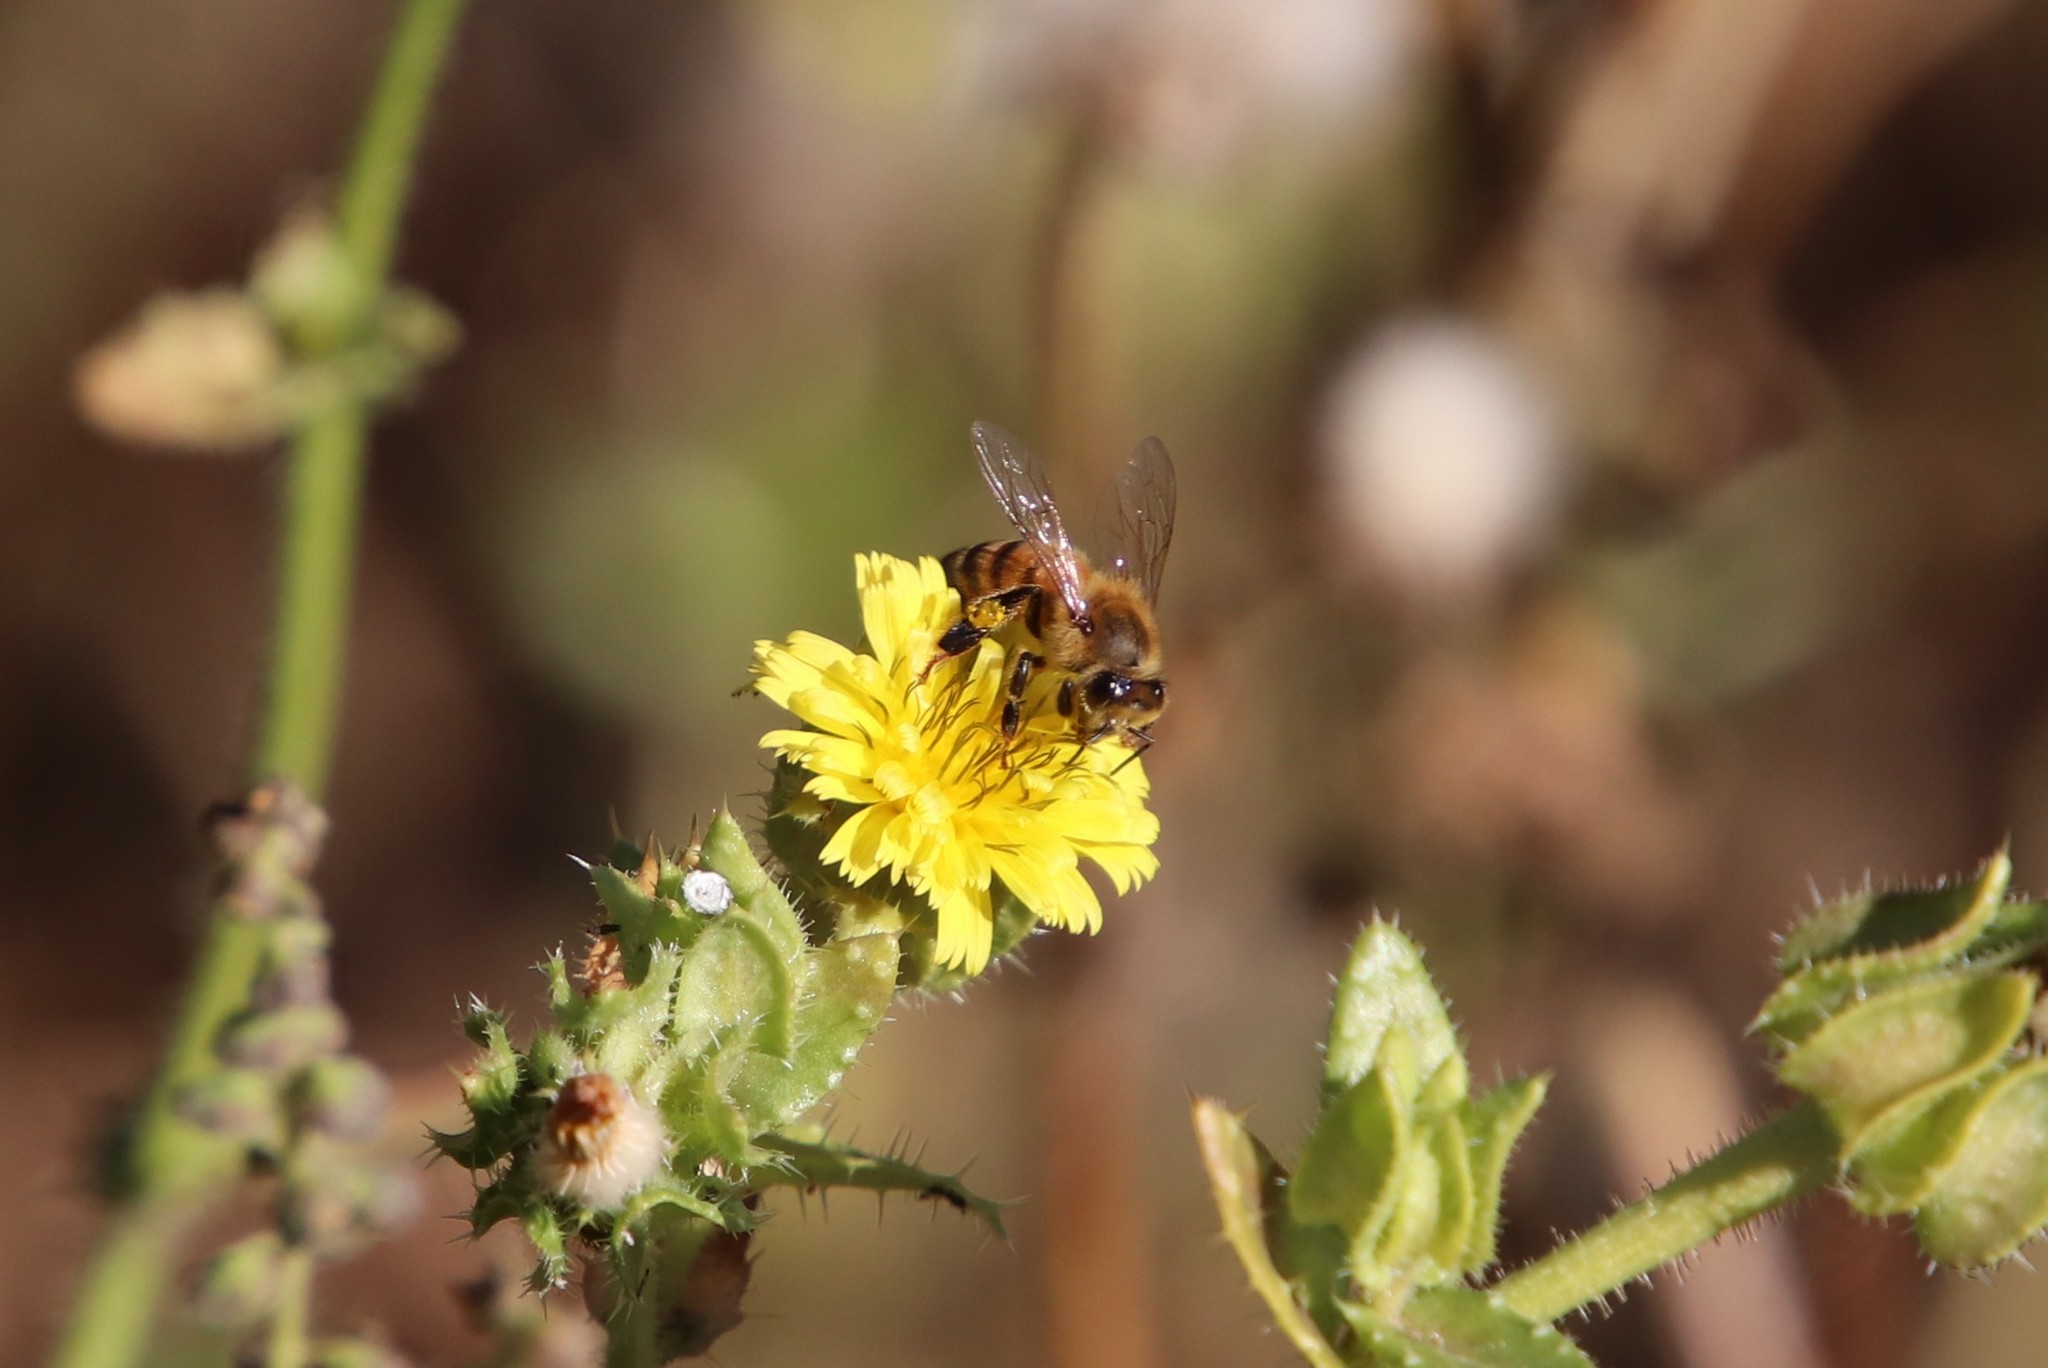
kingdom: Animalia
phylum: Arthropoda
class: Insecta
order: Hymenoptera
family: Apidae
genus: Apis
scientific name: Apis mellifera
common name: Honey bee
